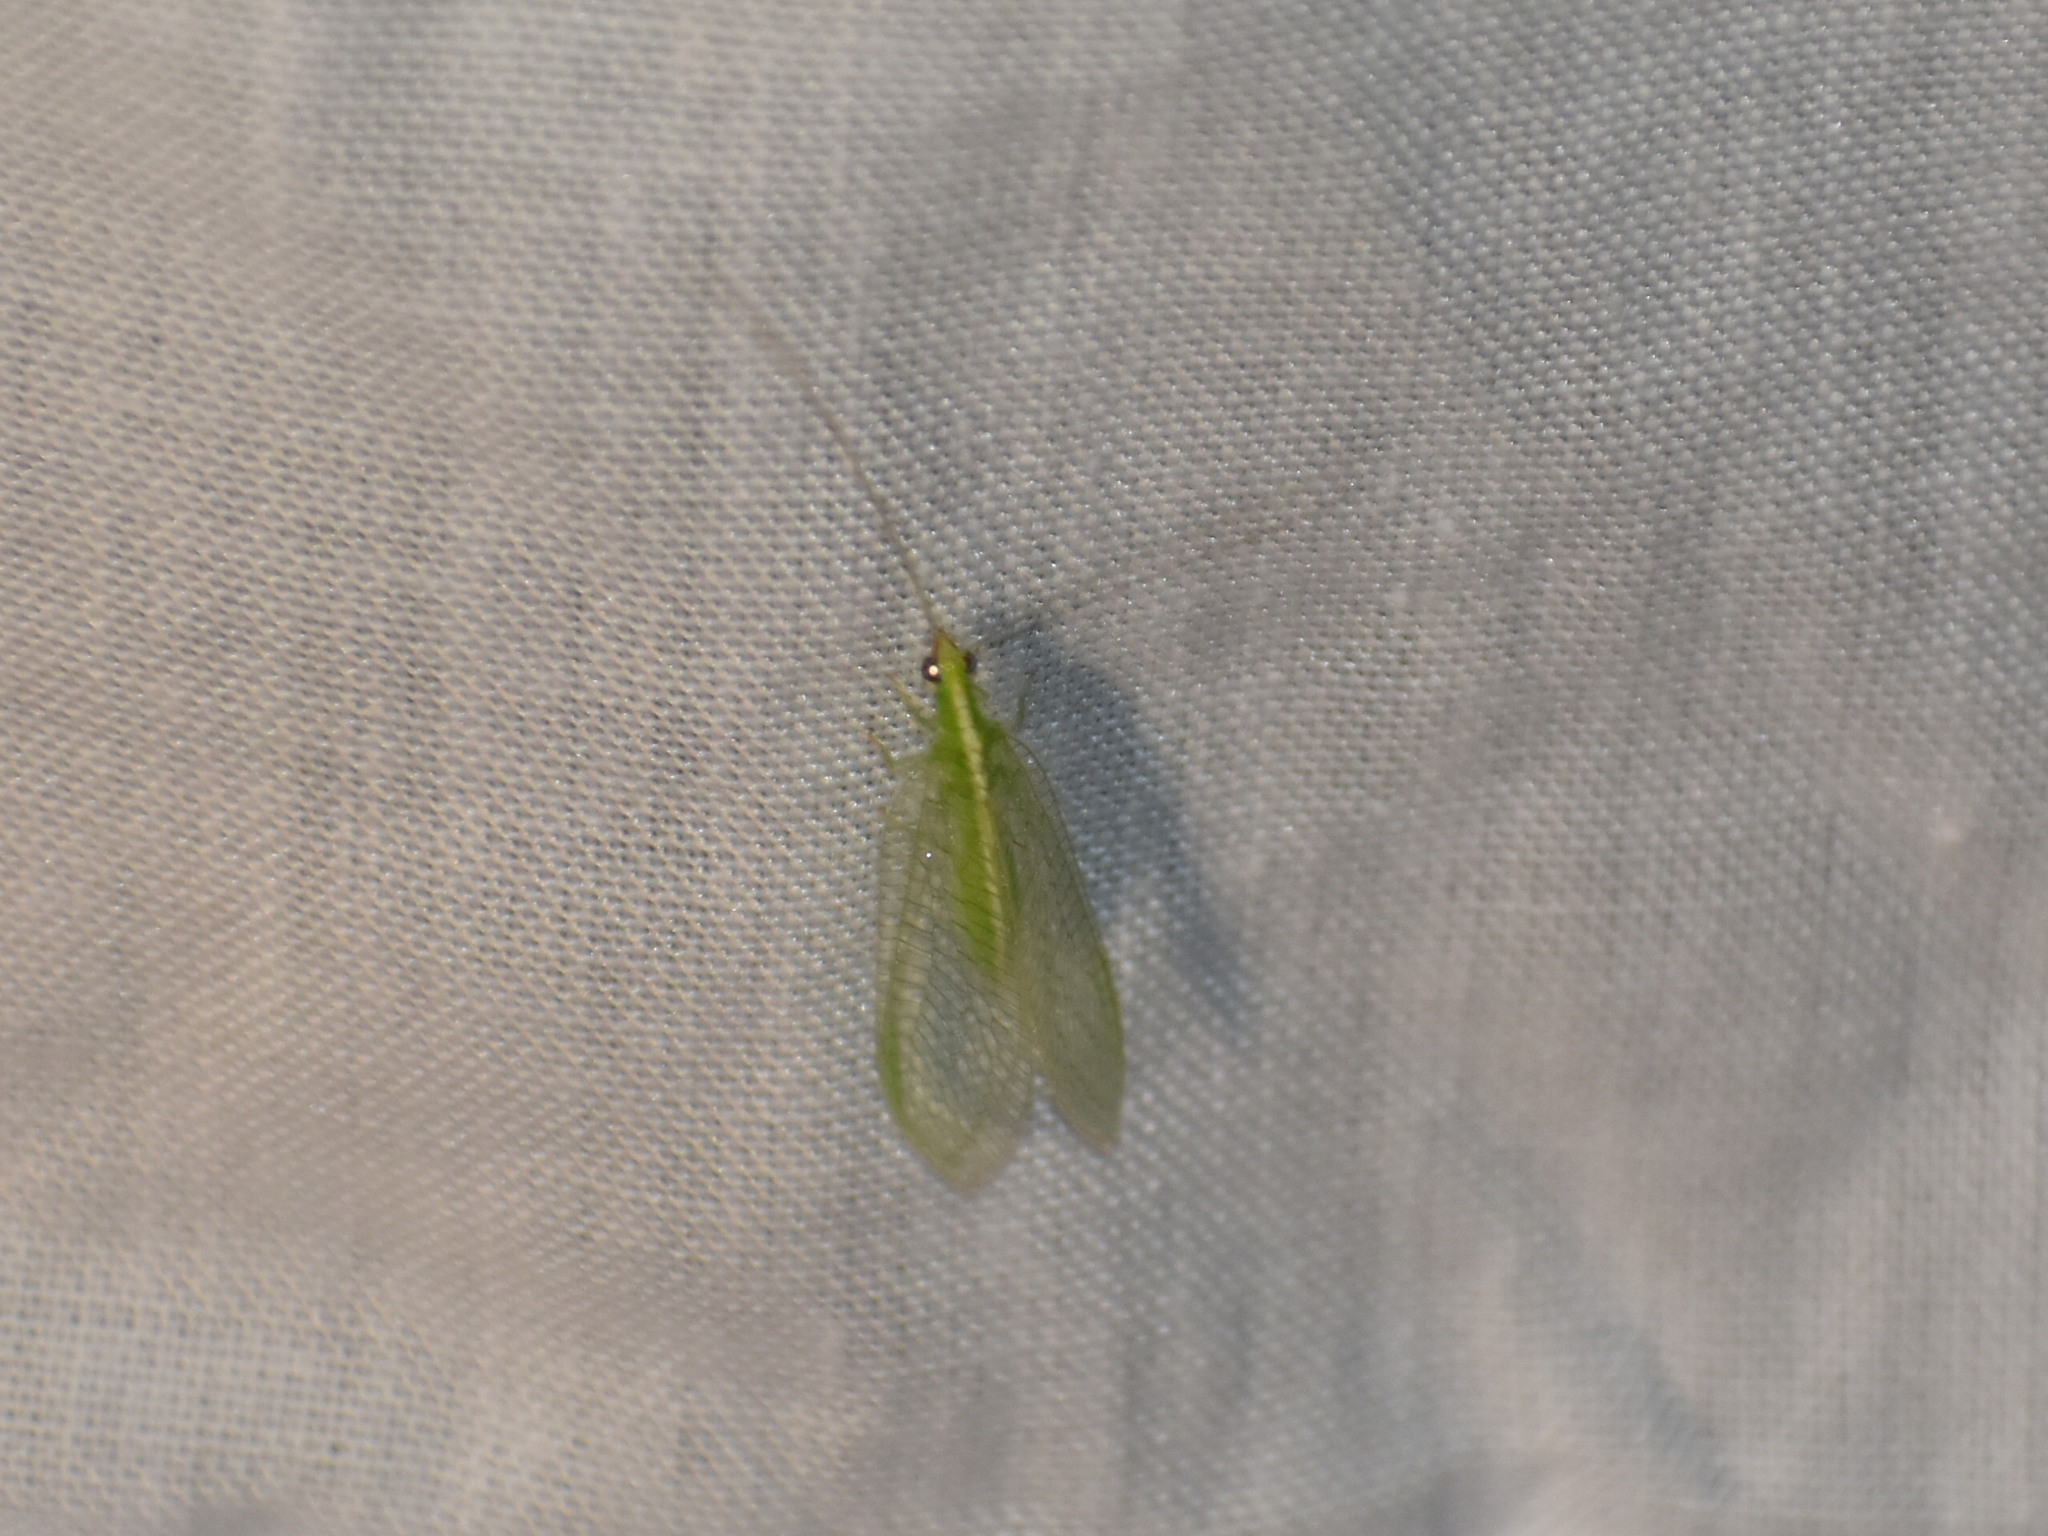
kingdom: Animalia
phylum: Arthropoda
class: Insecta
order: Neuroptera
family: Chrysopidae
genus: Chrysoperla
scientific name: Chrysoperla
